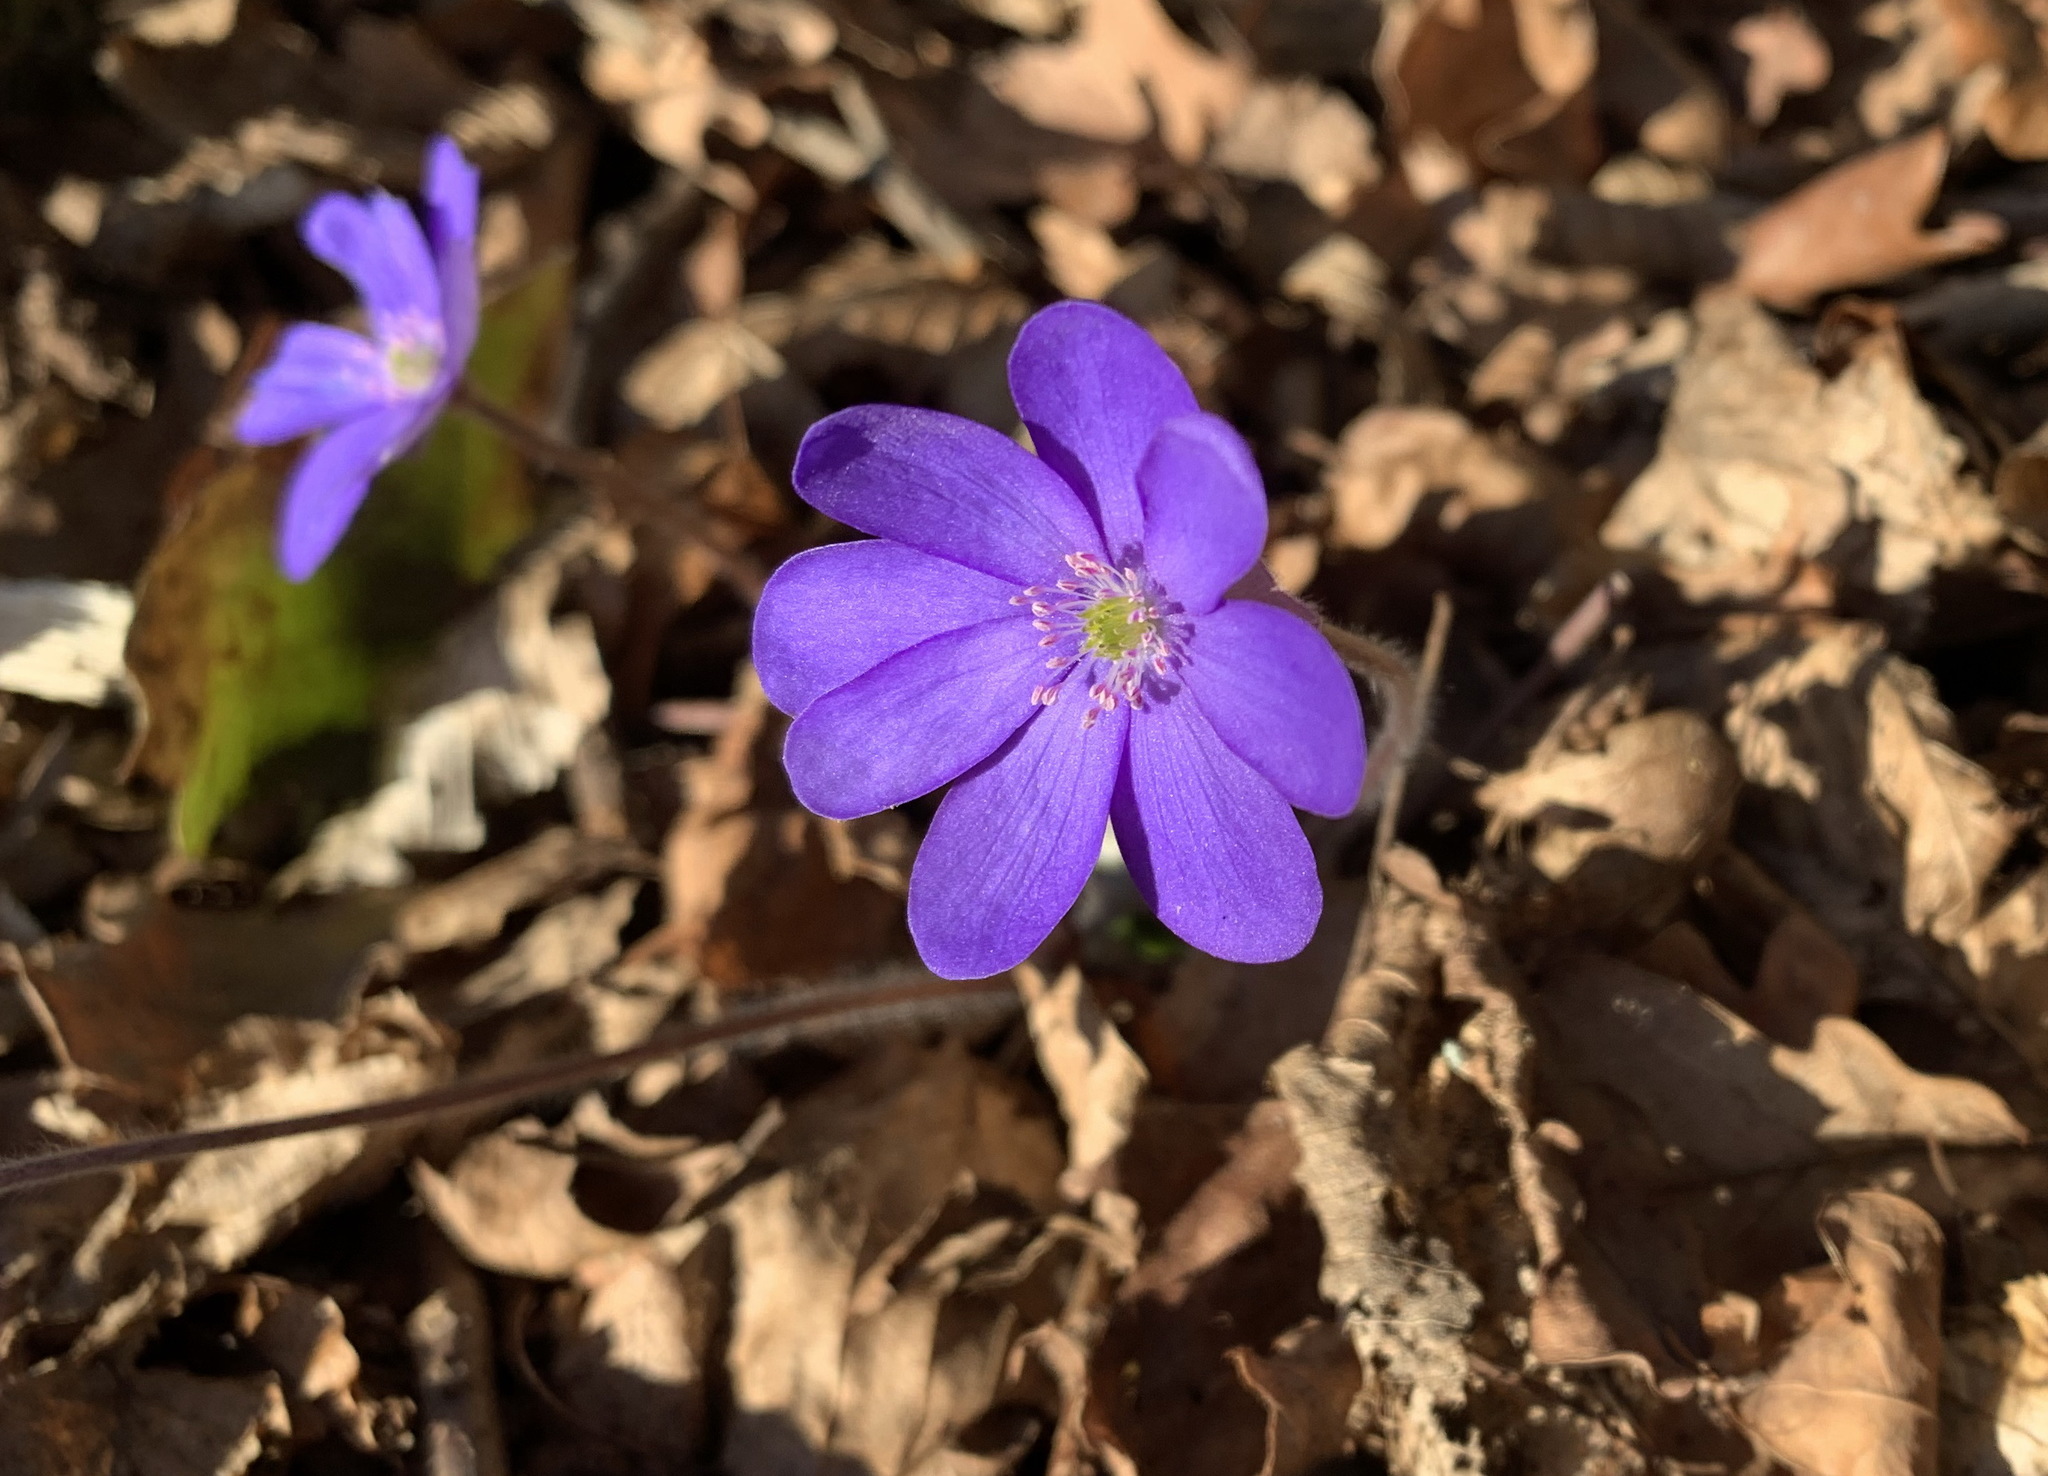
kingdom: Plantae
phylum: Tracheophyta
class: Magnoliopsida
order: Ranunculales
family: Ranunculaceae
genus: Hepatica
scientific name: Hepatica nobilis
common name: Liverleaf
